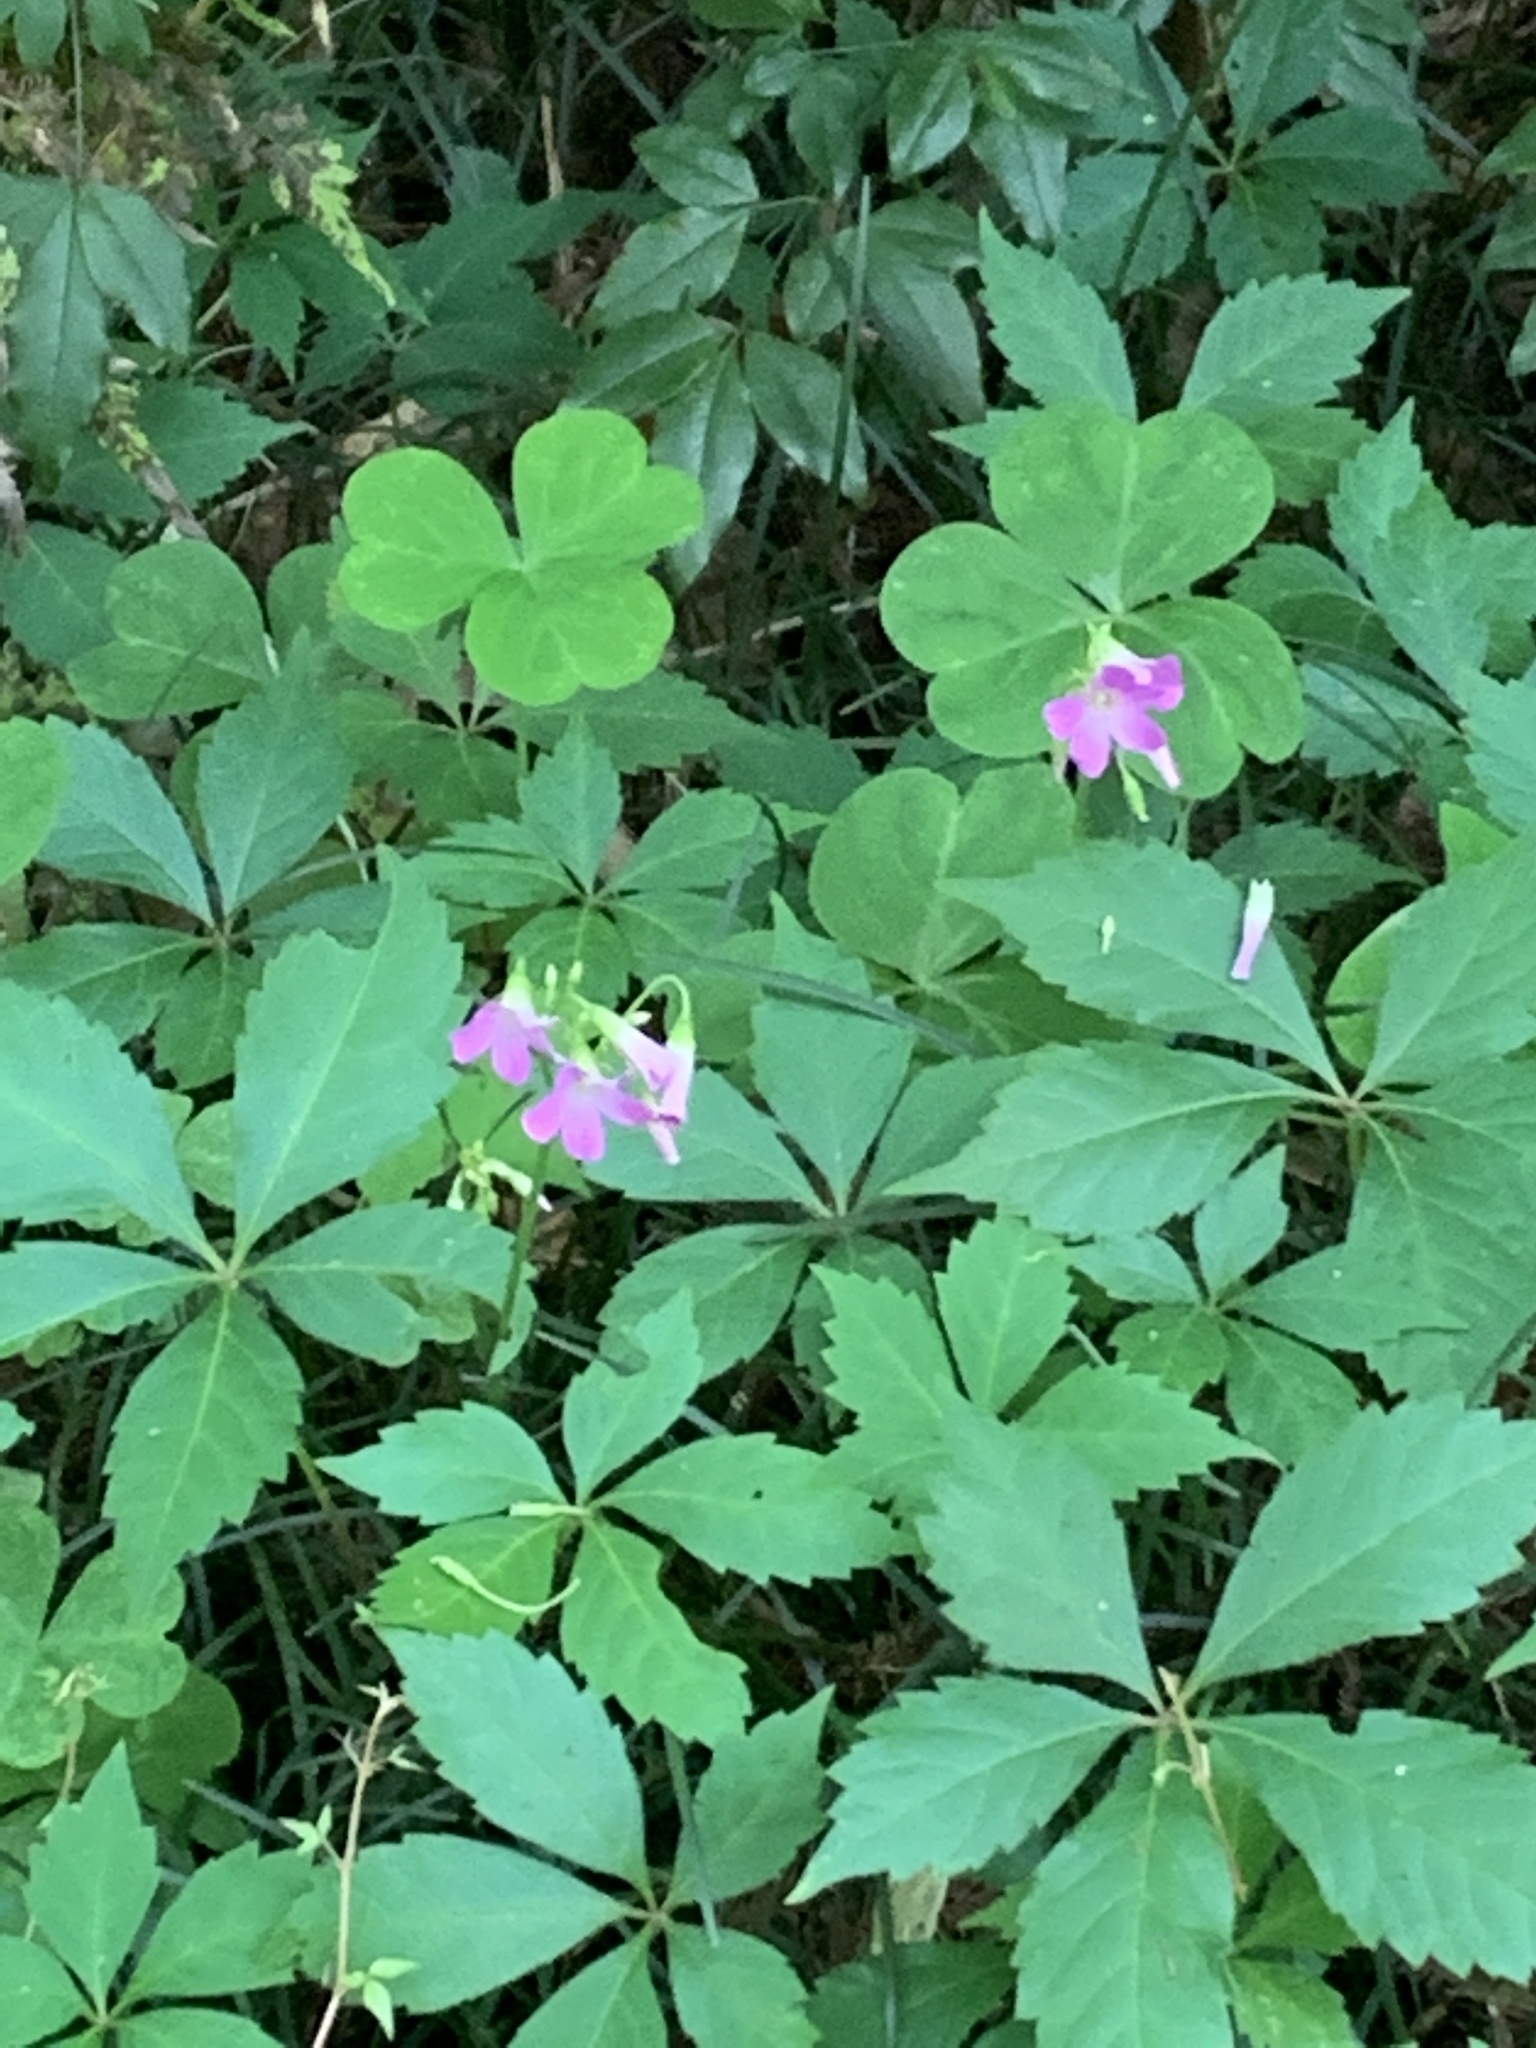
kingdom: Plantae
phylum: Tracheophyta
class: Magnoliopsida
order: Oxalidales
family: Oxalidaceae
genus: Oxalis
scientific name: Oxalis debilis
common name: Large-flowered pink-sorrel
